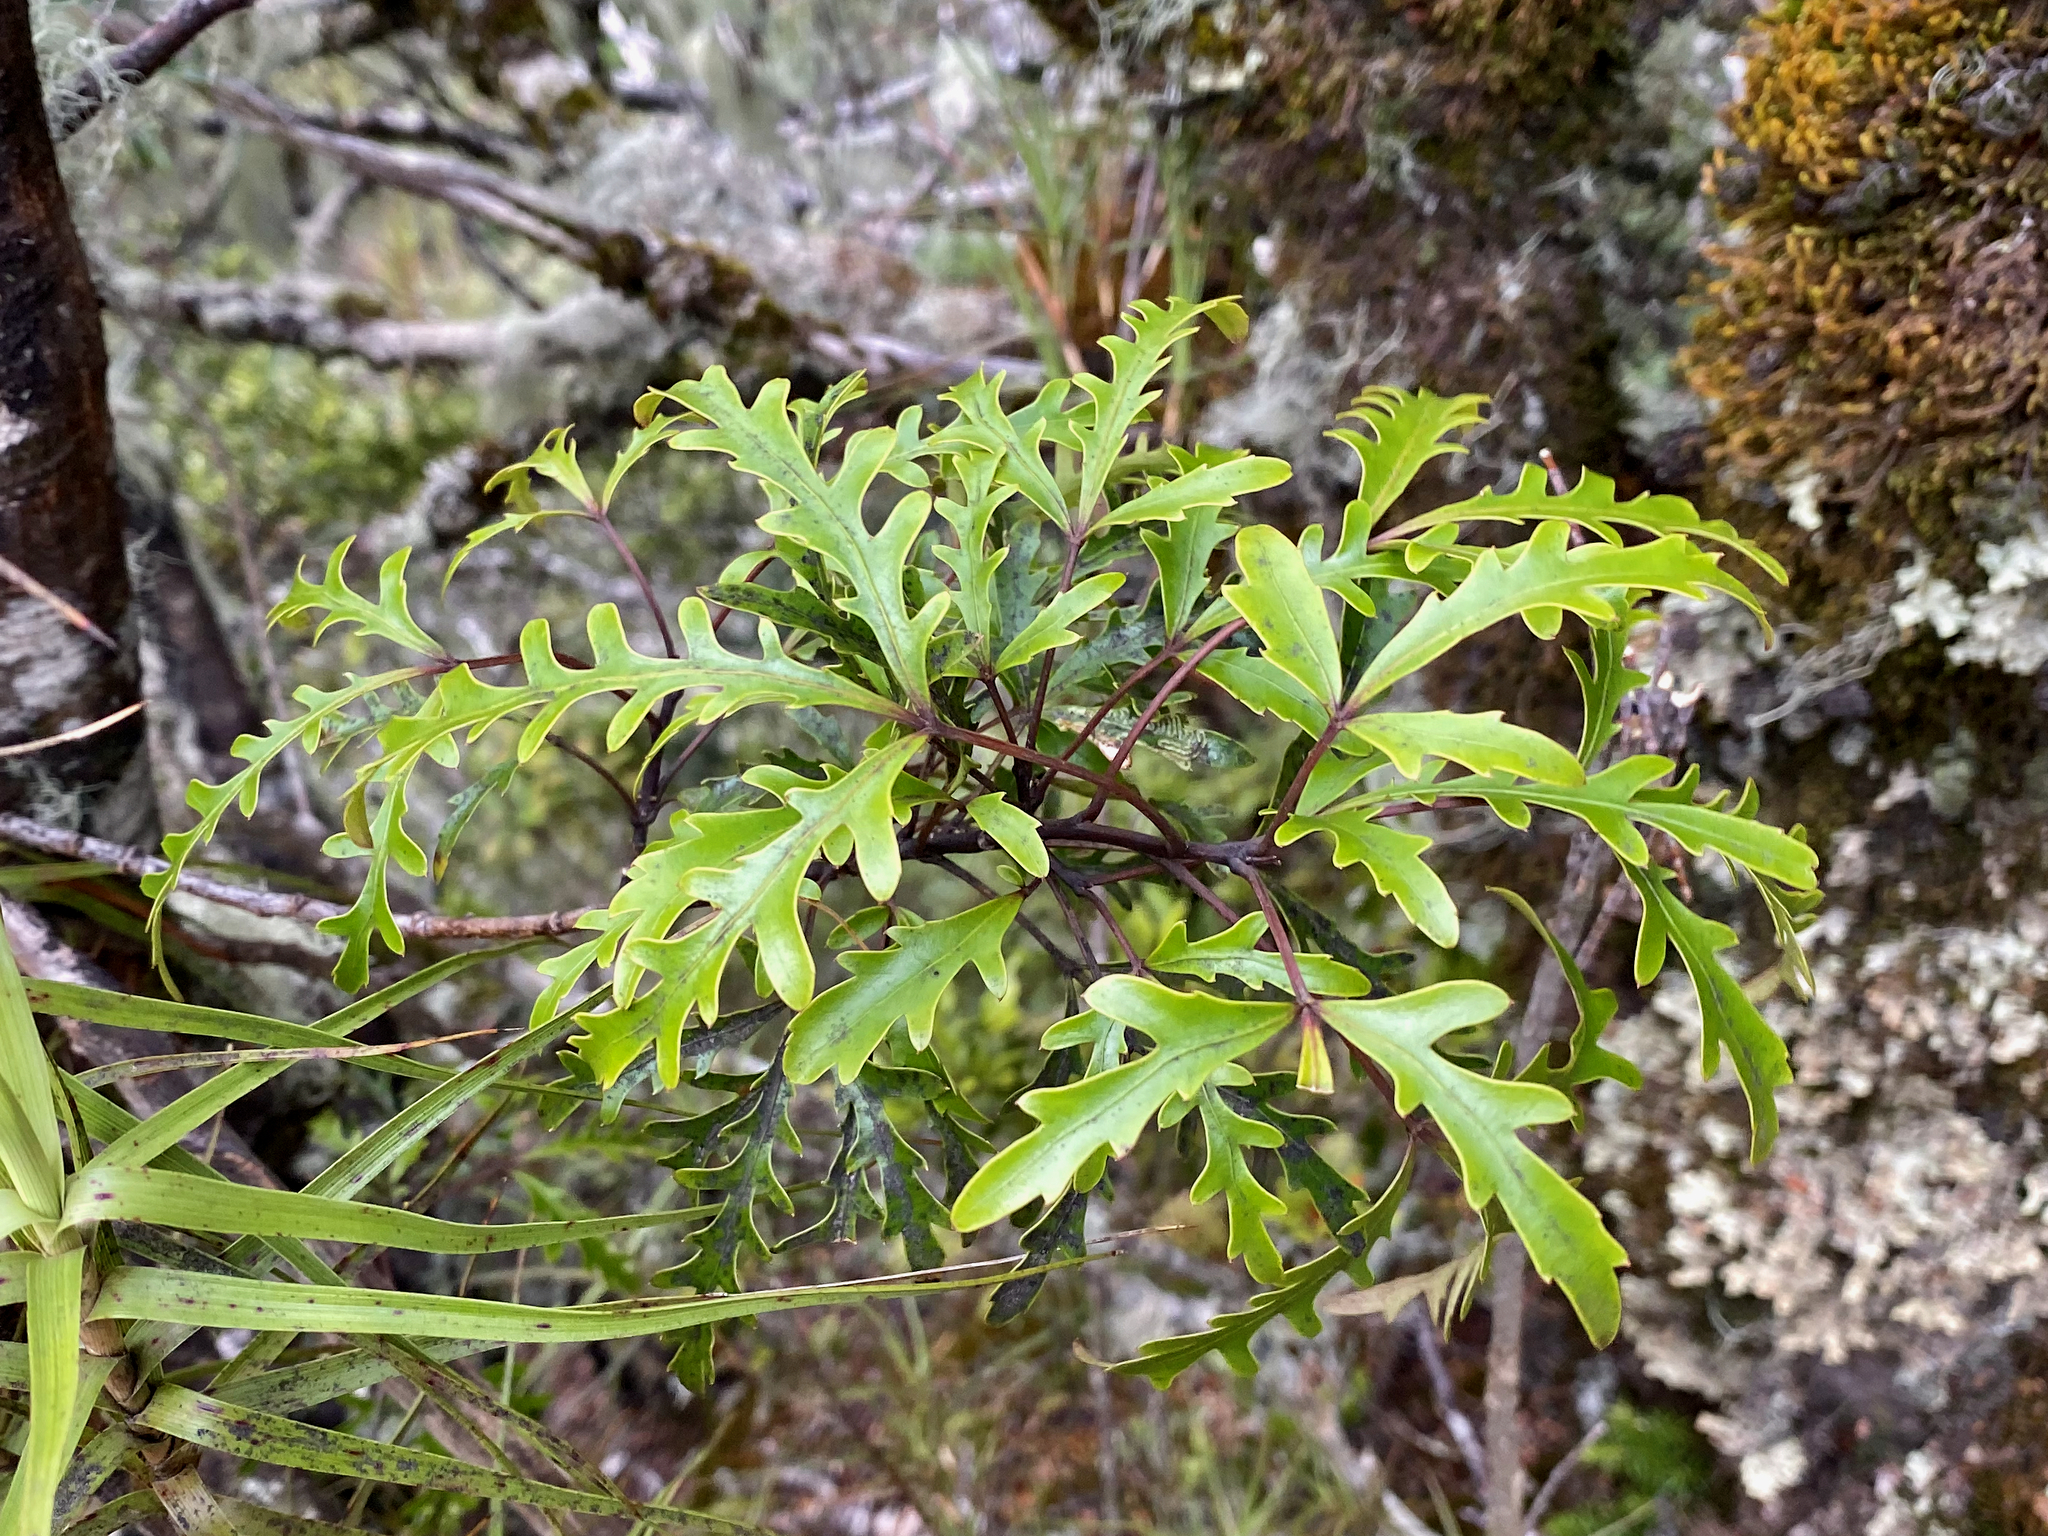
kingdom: Plantae
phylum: Tracheophyta
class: Magnoliopsida
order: Apiales
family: Araliaceae
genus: Raukaua
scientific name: Raukaua simplex
